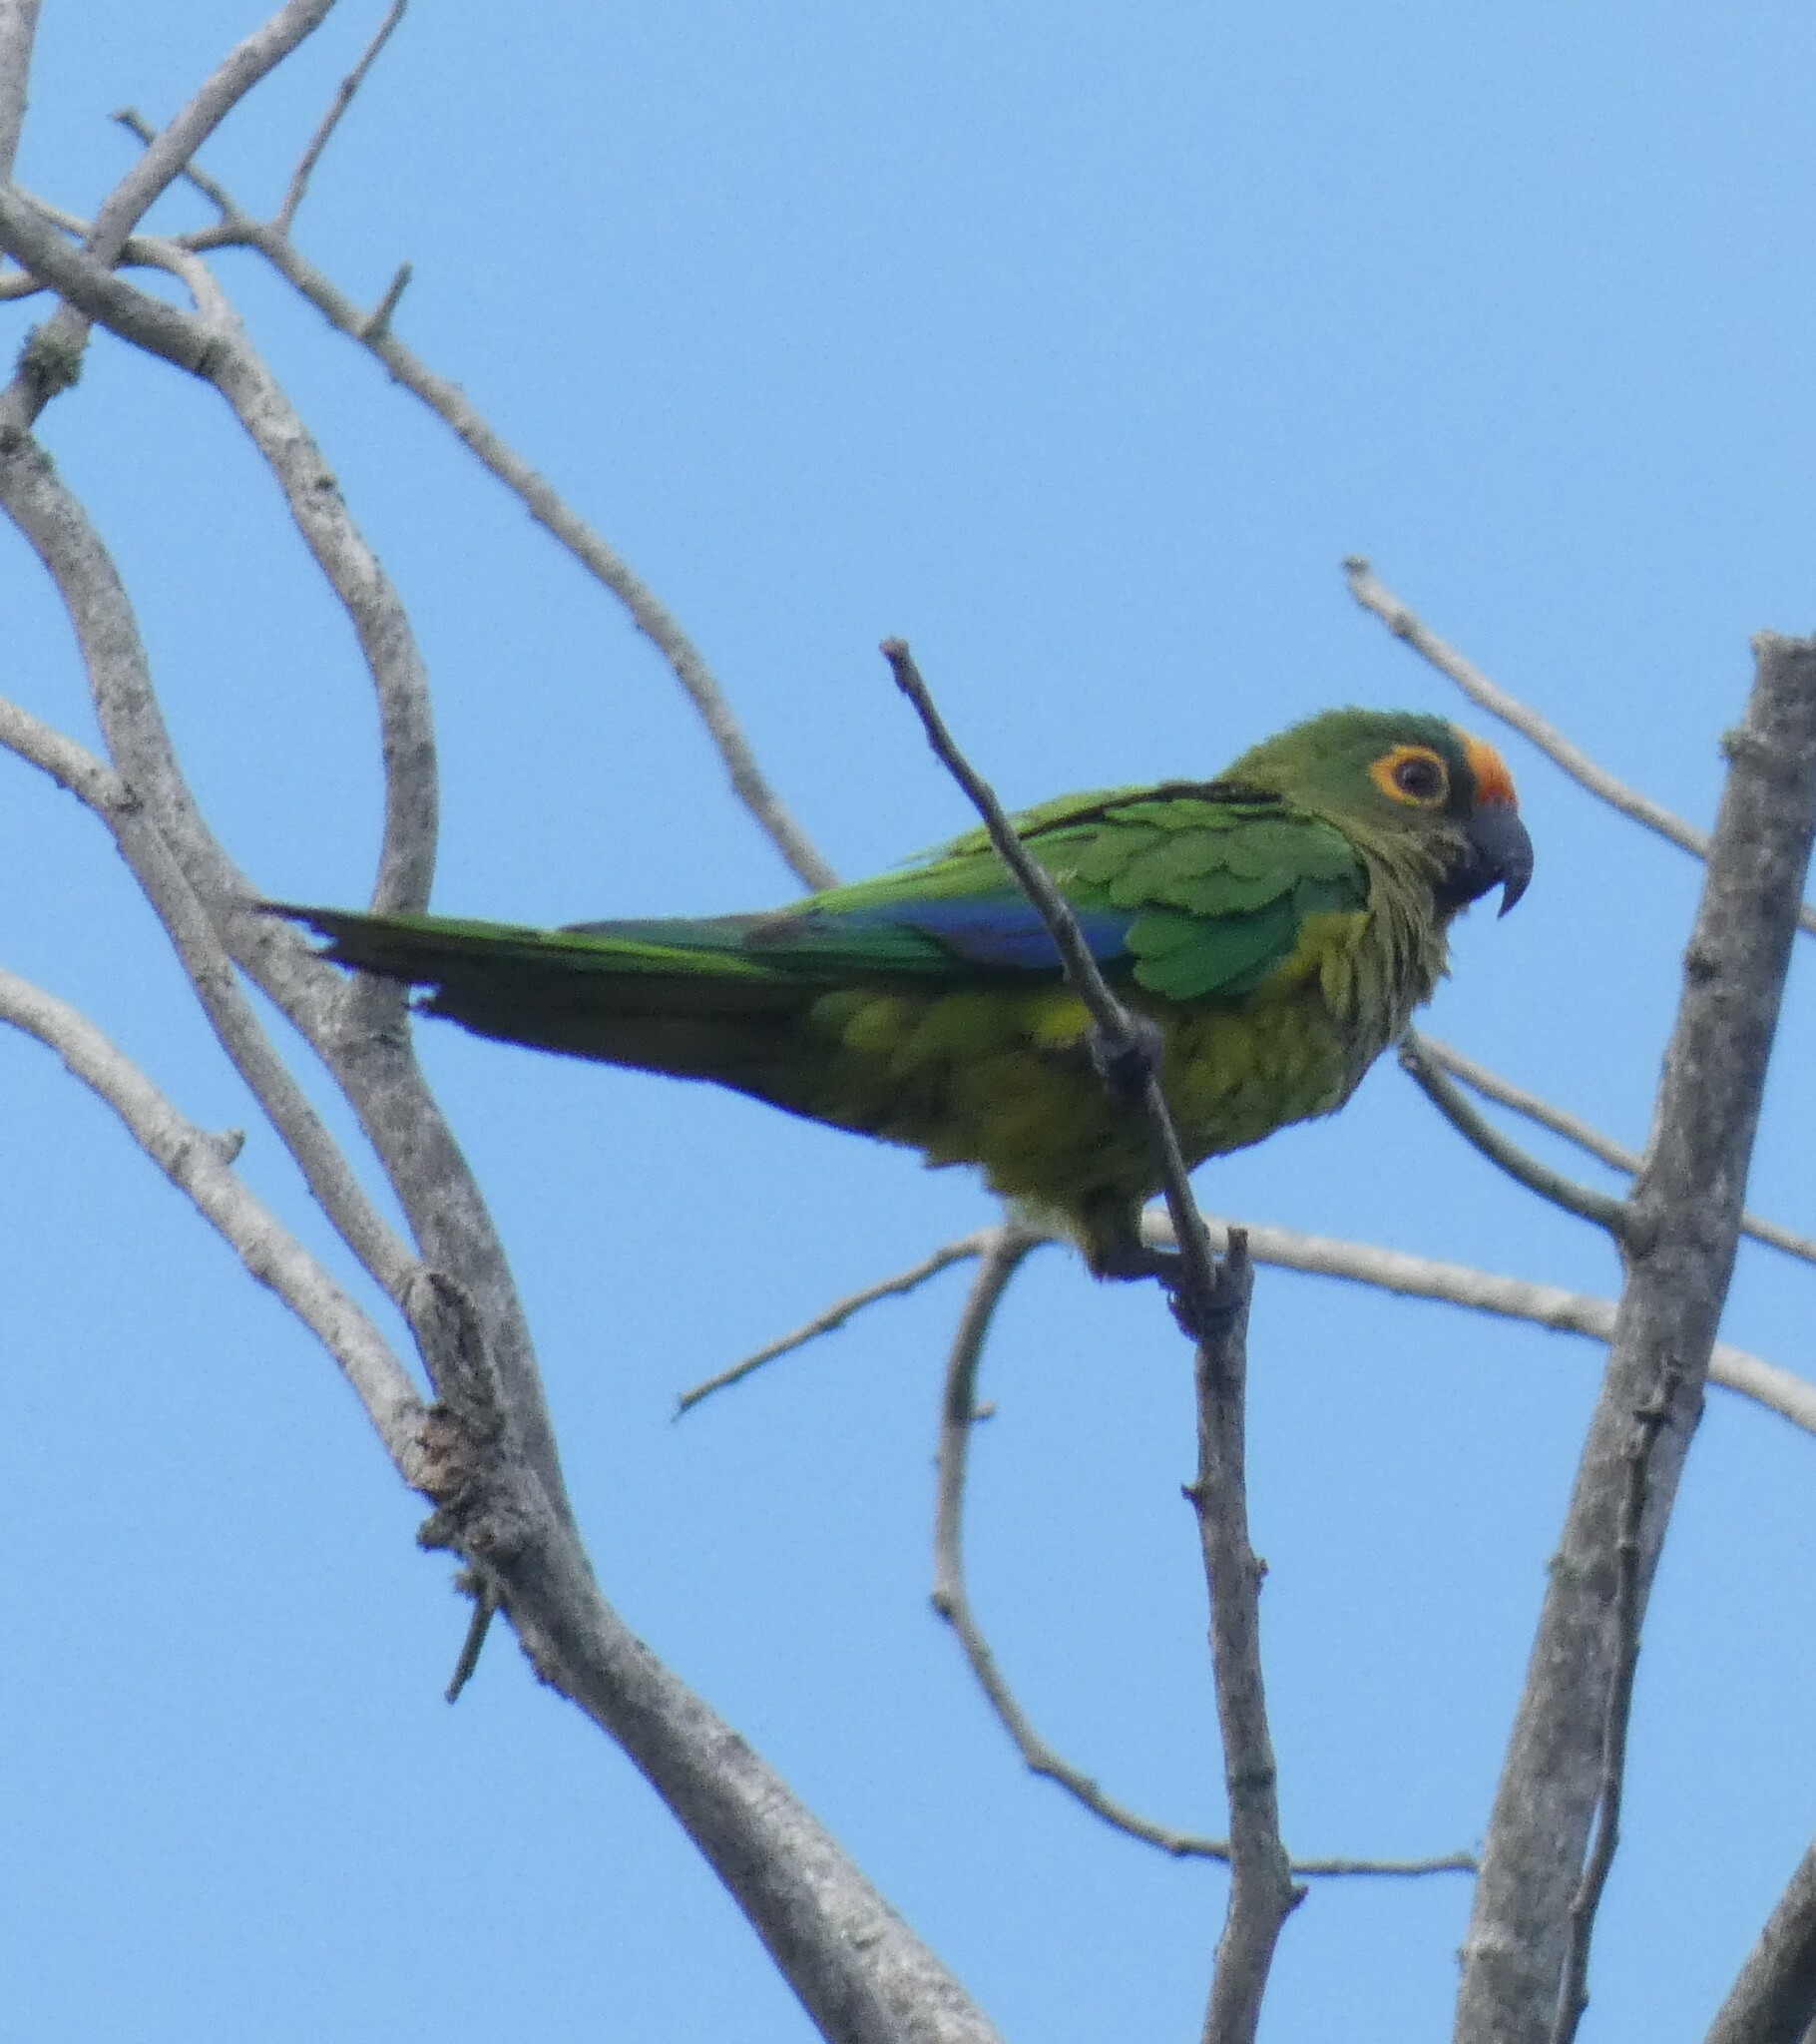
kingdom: Animalia
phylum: Chordata
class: Aves
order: Psittaciformes
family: Psittacidae
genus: Aratinga
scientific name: Aratinga aurea
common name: Peach-fronted parakeet
